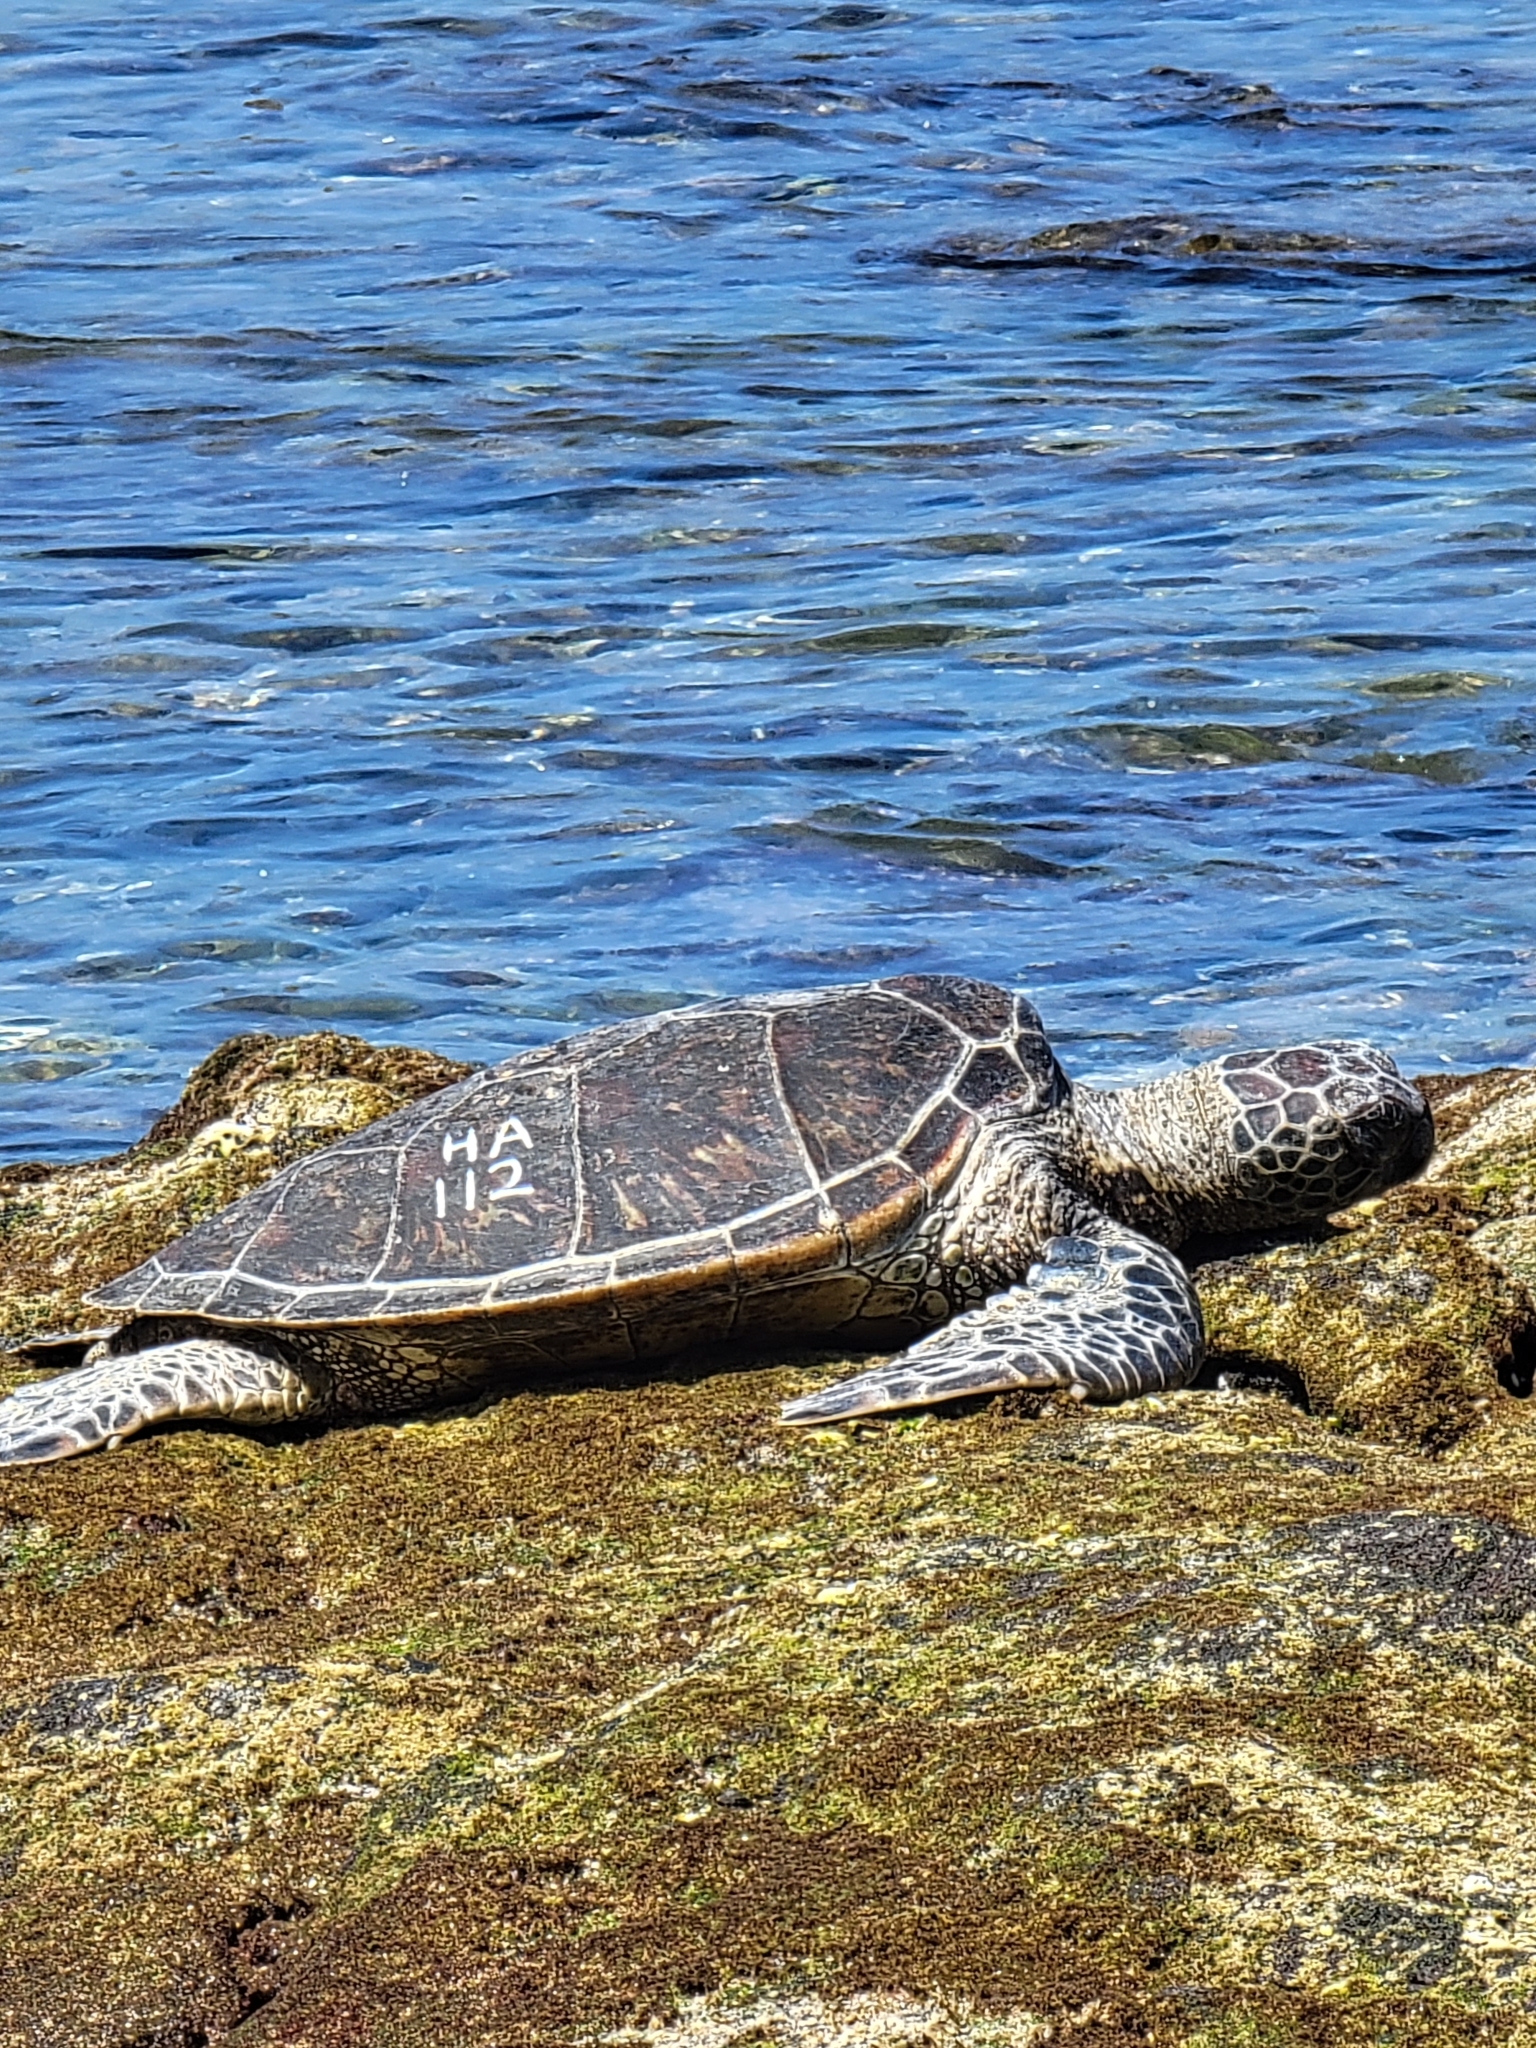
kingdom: Animalia
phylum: Chordata
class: Testudines
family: Cheloniidae
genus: Chelonia
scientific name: Chelonia mydas
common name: Green turtle
